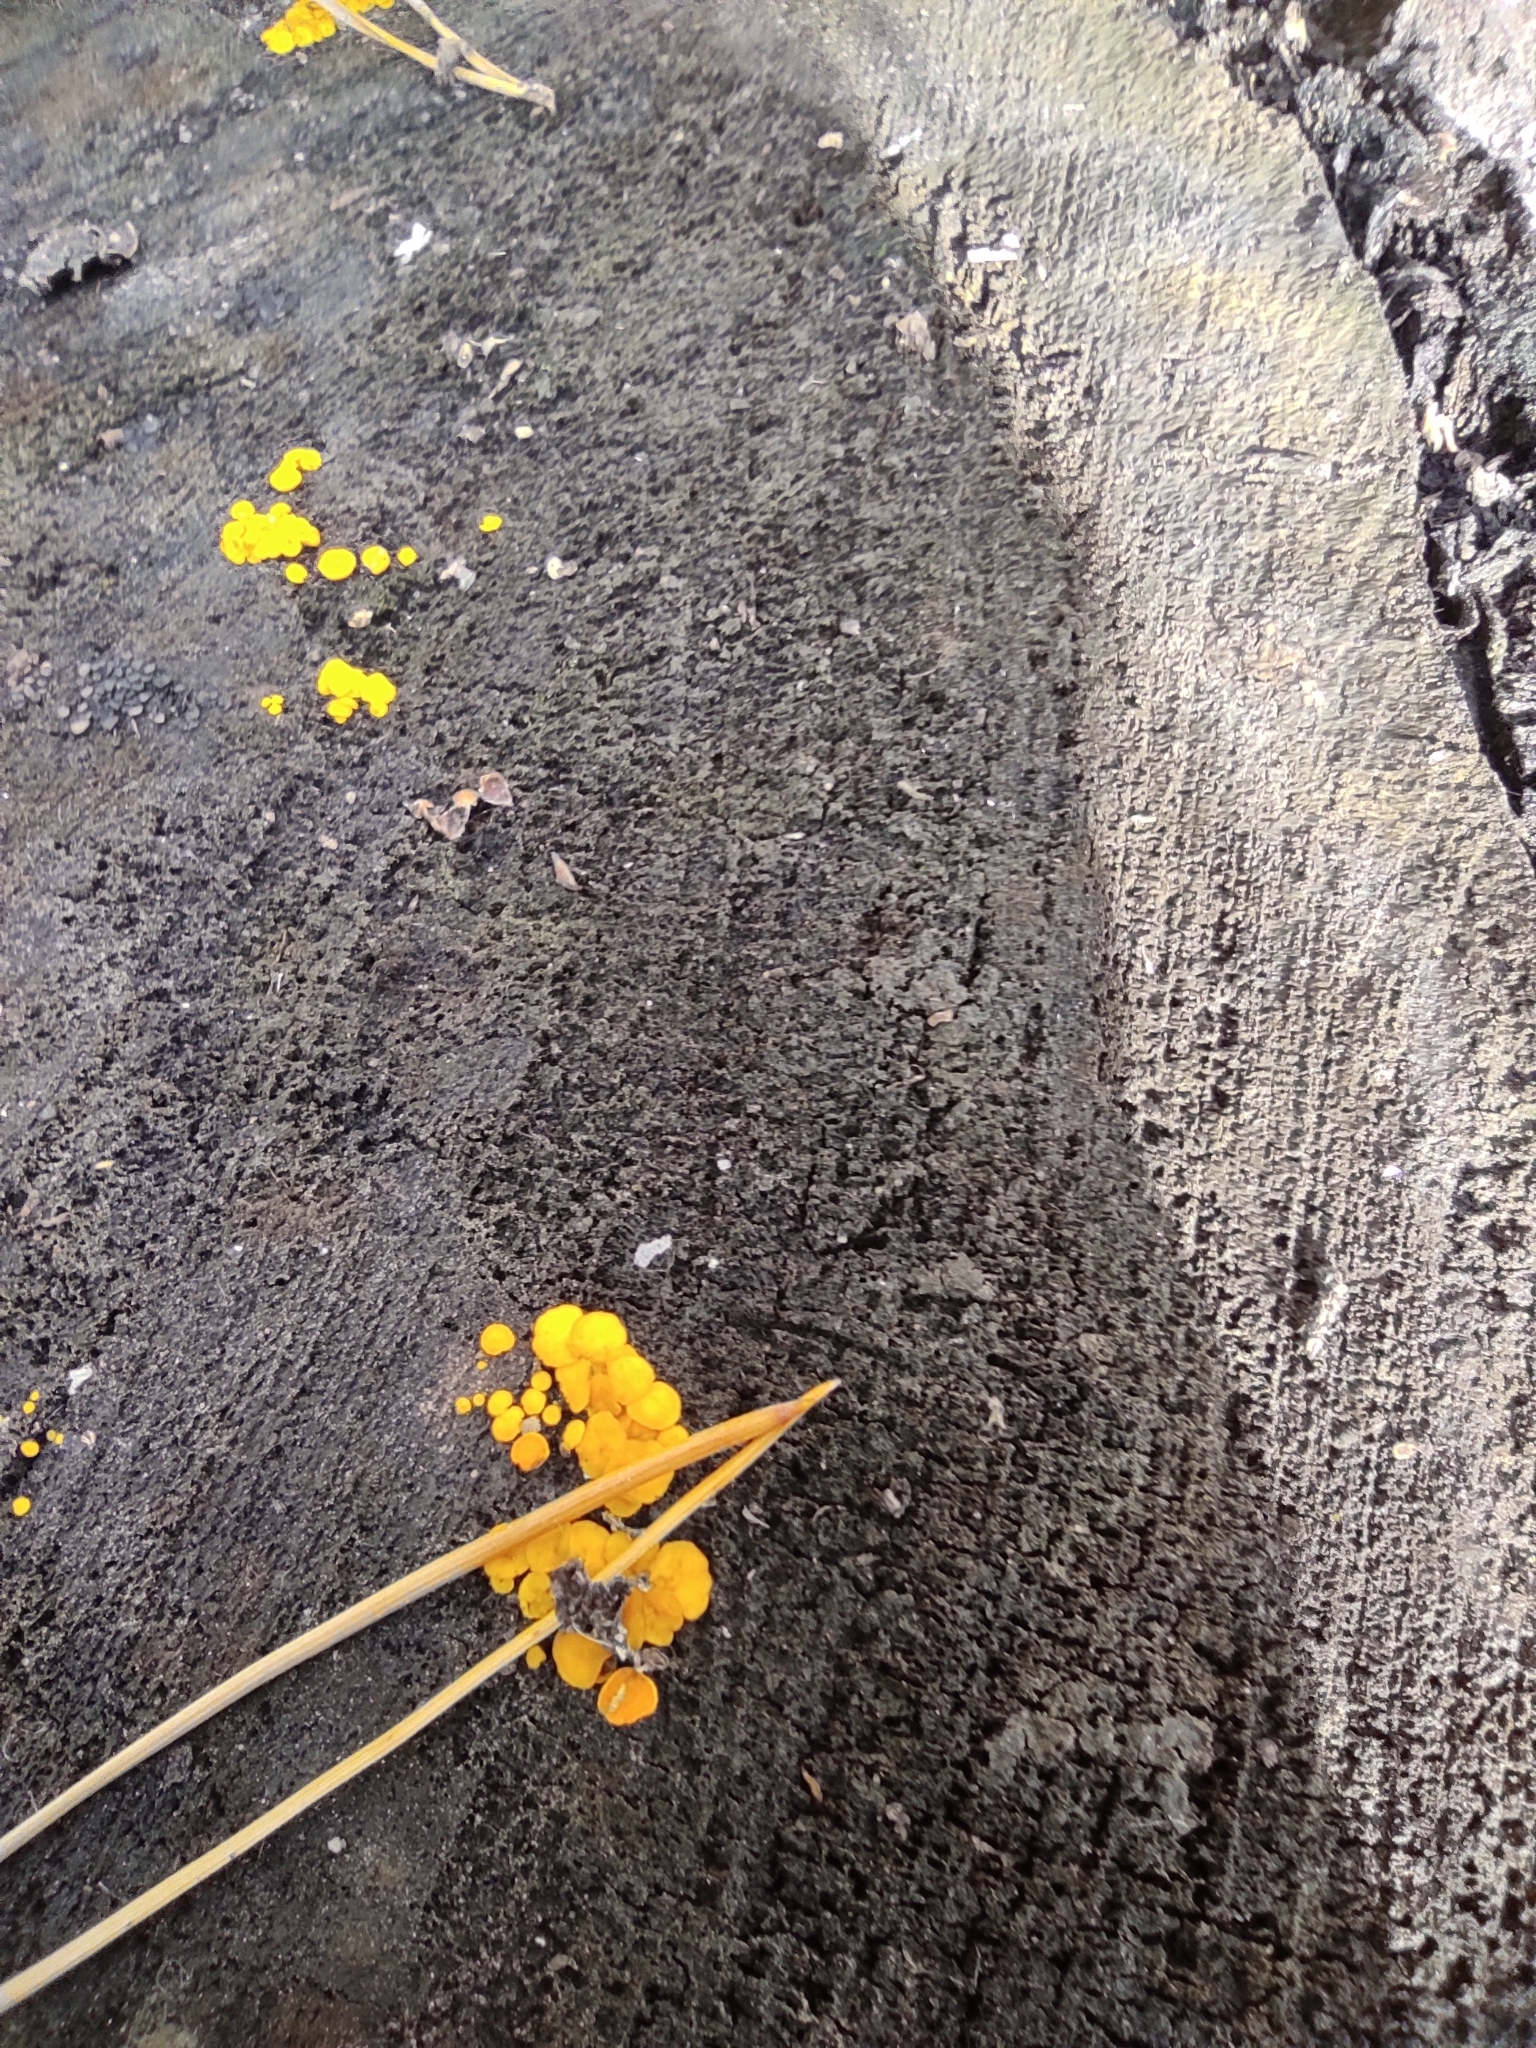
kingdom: Fungi
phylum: Ascomycota
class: Leotiomycetes
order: Helotiales
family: Pezizellaceae
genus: Calycina
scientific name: Calycina citrina
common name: Yellow fairy cups
